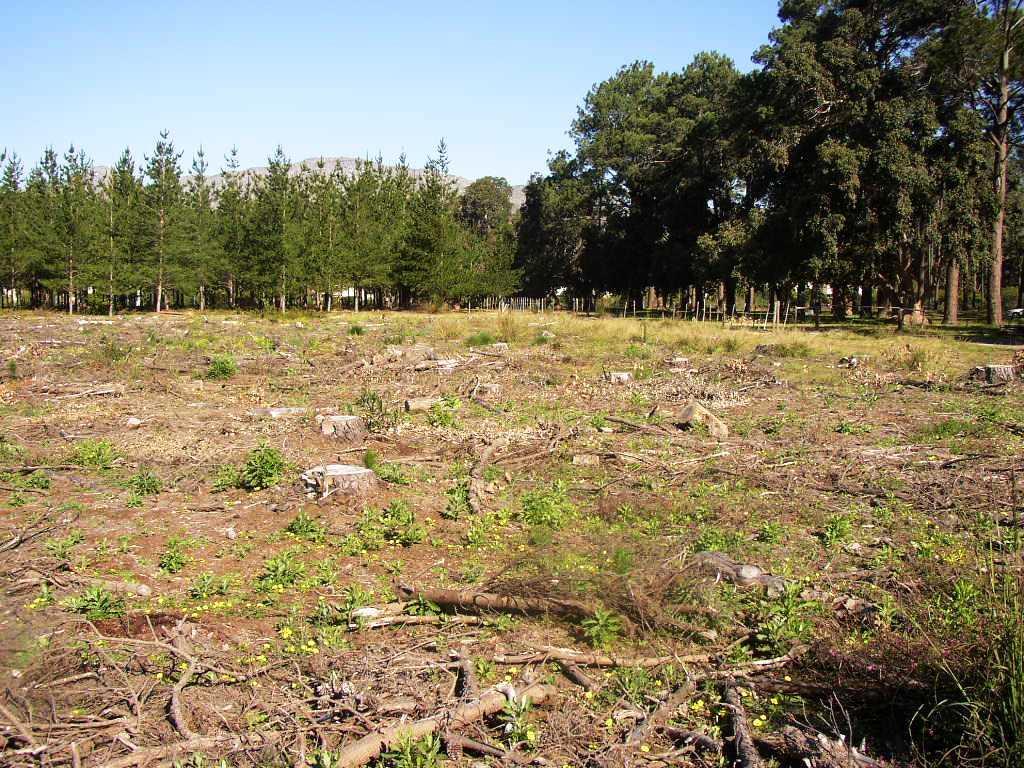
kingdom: Plantae
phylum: Tracheophyta
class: Magnoliopsida
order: Oxalidales
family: Oxalidaceae
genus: Oxalis
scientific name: Oxalis luteola
